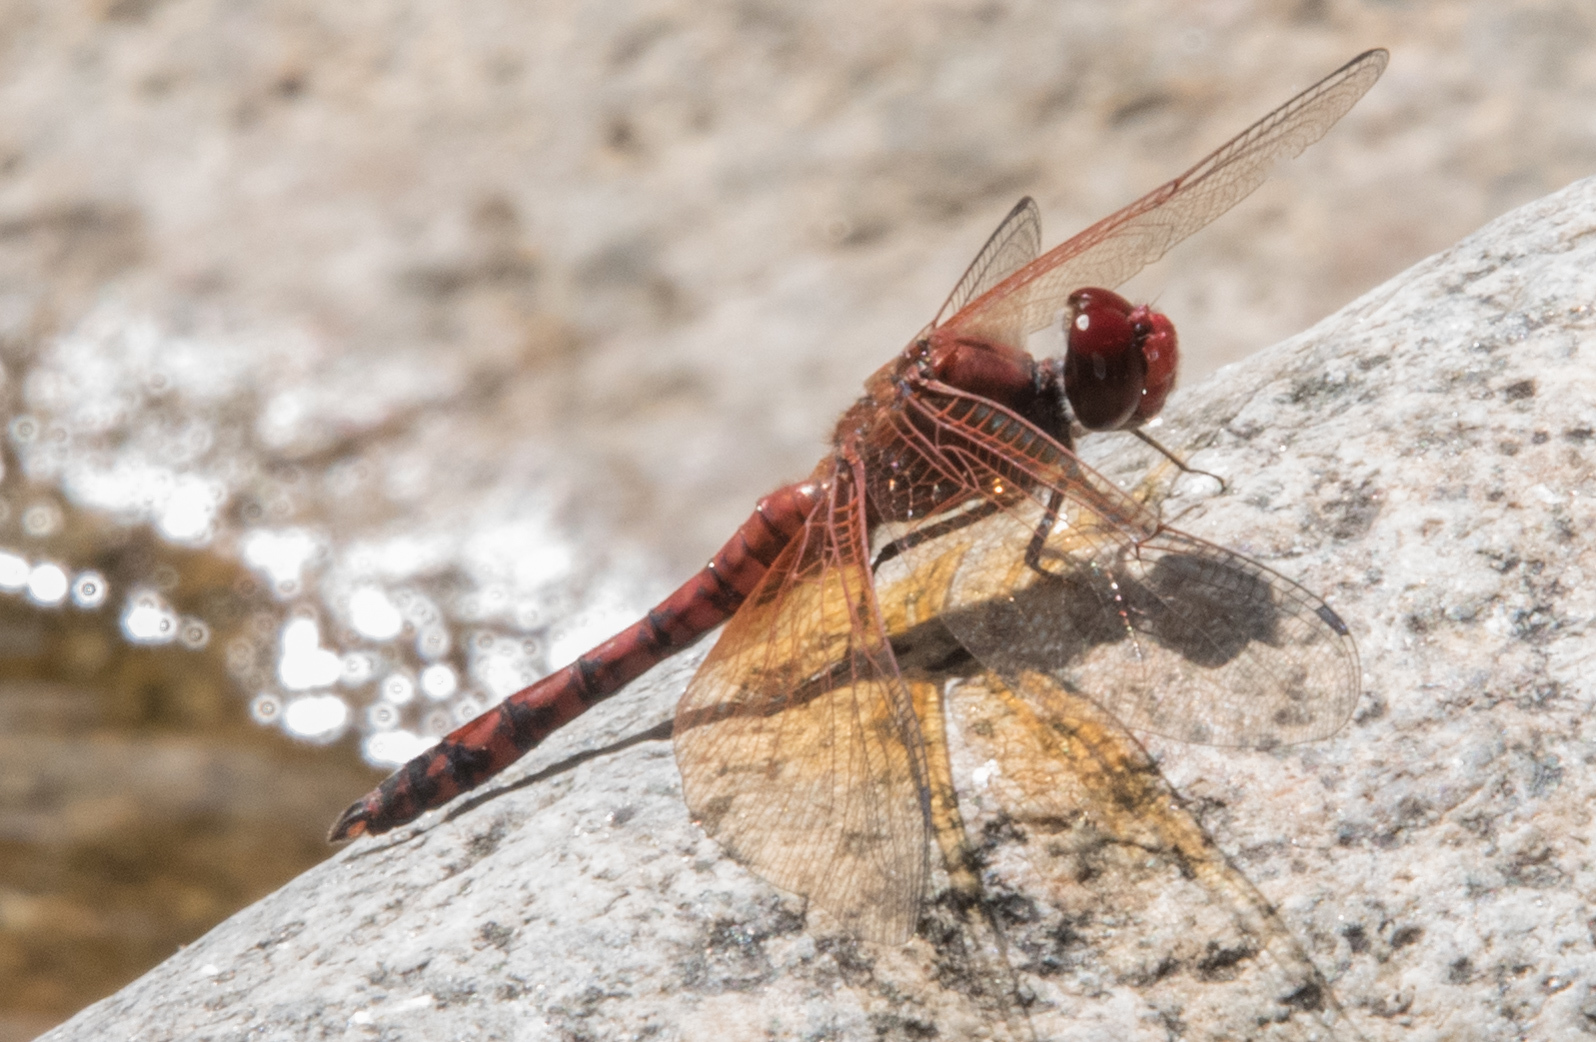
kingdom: Animalia
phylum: Arthropoda
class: Insecta
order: Odonata
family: Libellulidae
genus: Paltothemis
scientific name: Paltothemis lineatipes
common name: Red rock skimmer
